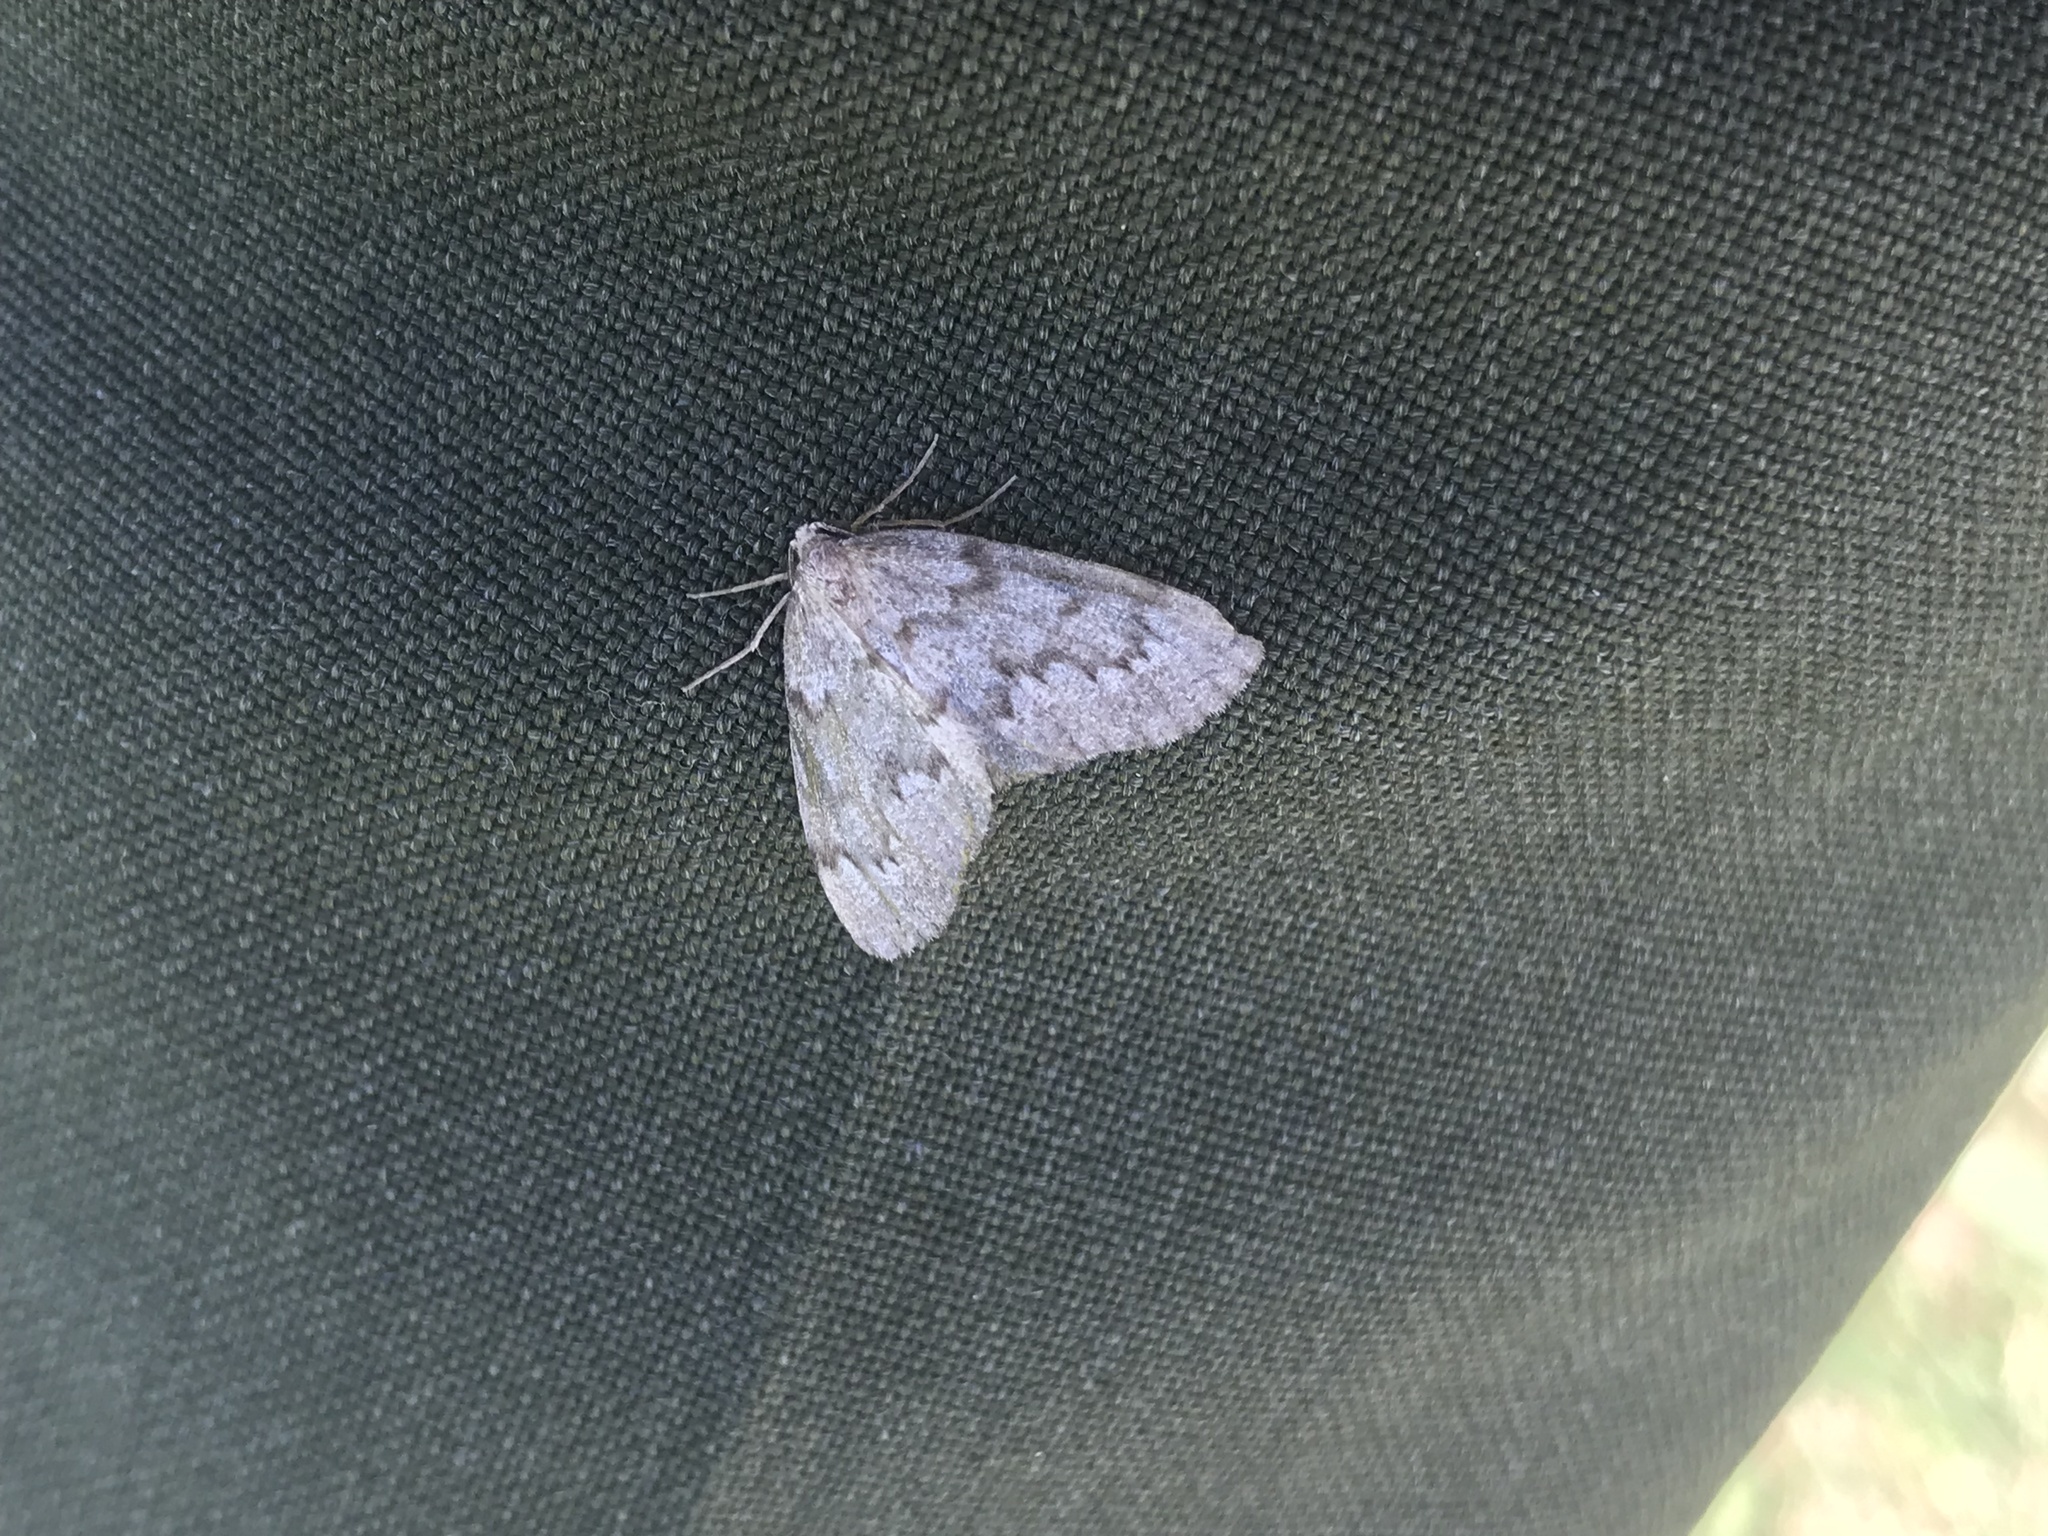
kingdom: Animalia
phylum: Arthropoda
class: Insecta
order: Lepidoptera
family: Geometridae
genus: Nepytia
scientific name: Nepytia canosaria
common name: False hemlock looper
